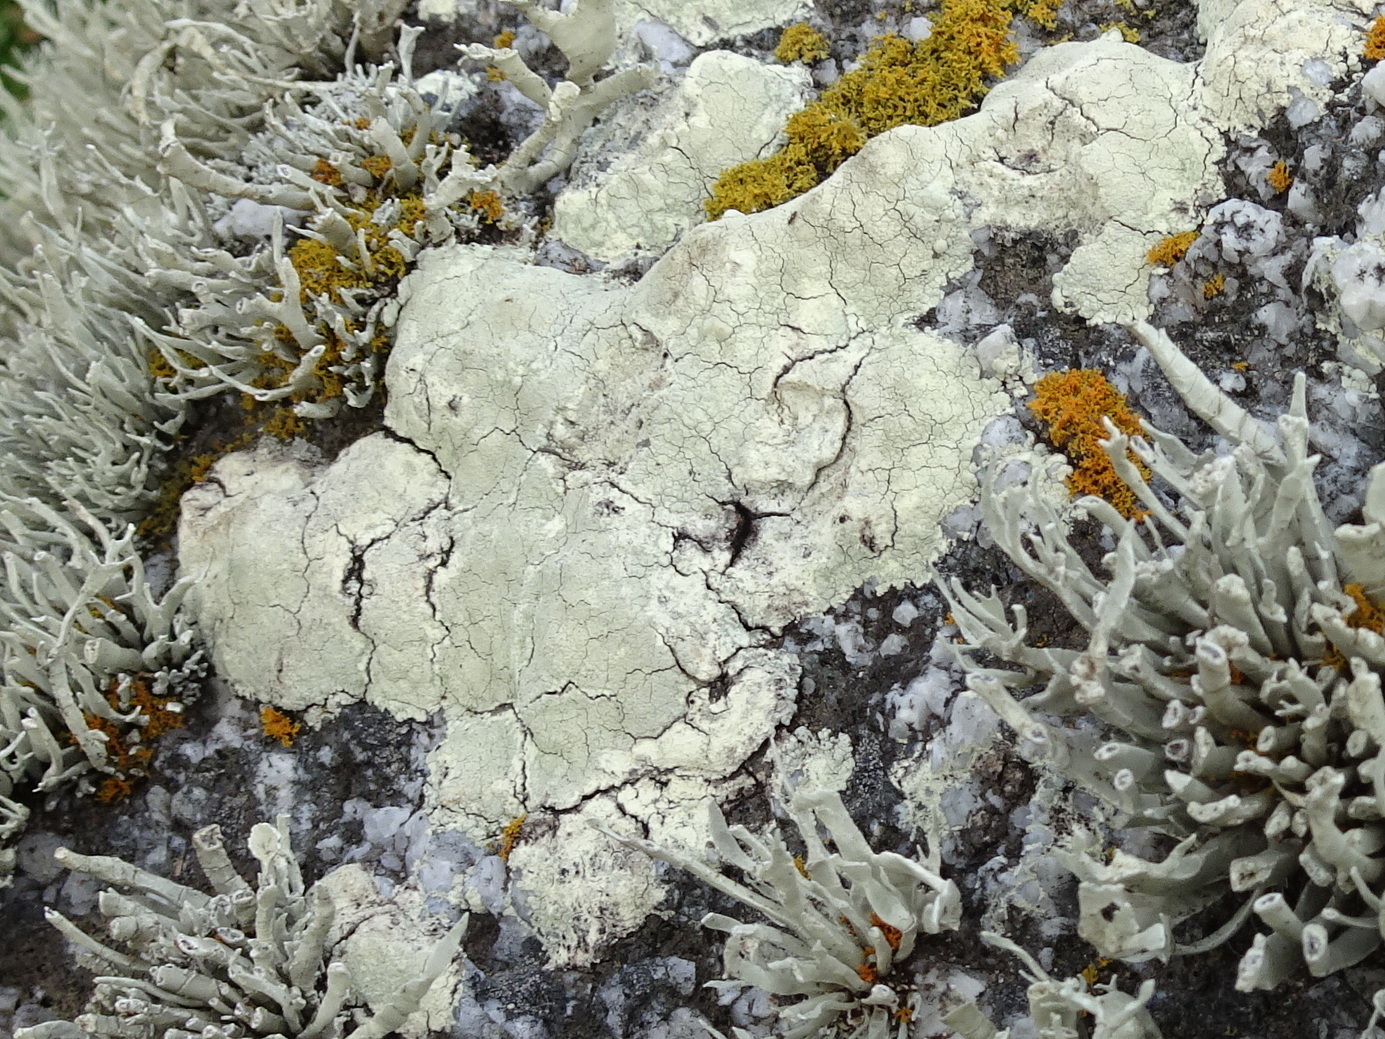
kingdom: Fungi
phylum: Ascomycota
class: Lecanoromycetes
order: Lecanorales
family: Lecanoraceae
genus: Protoparmeliopsis
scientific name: Protoparmeliopsis pinguis
